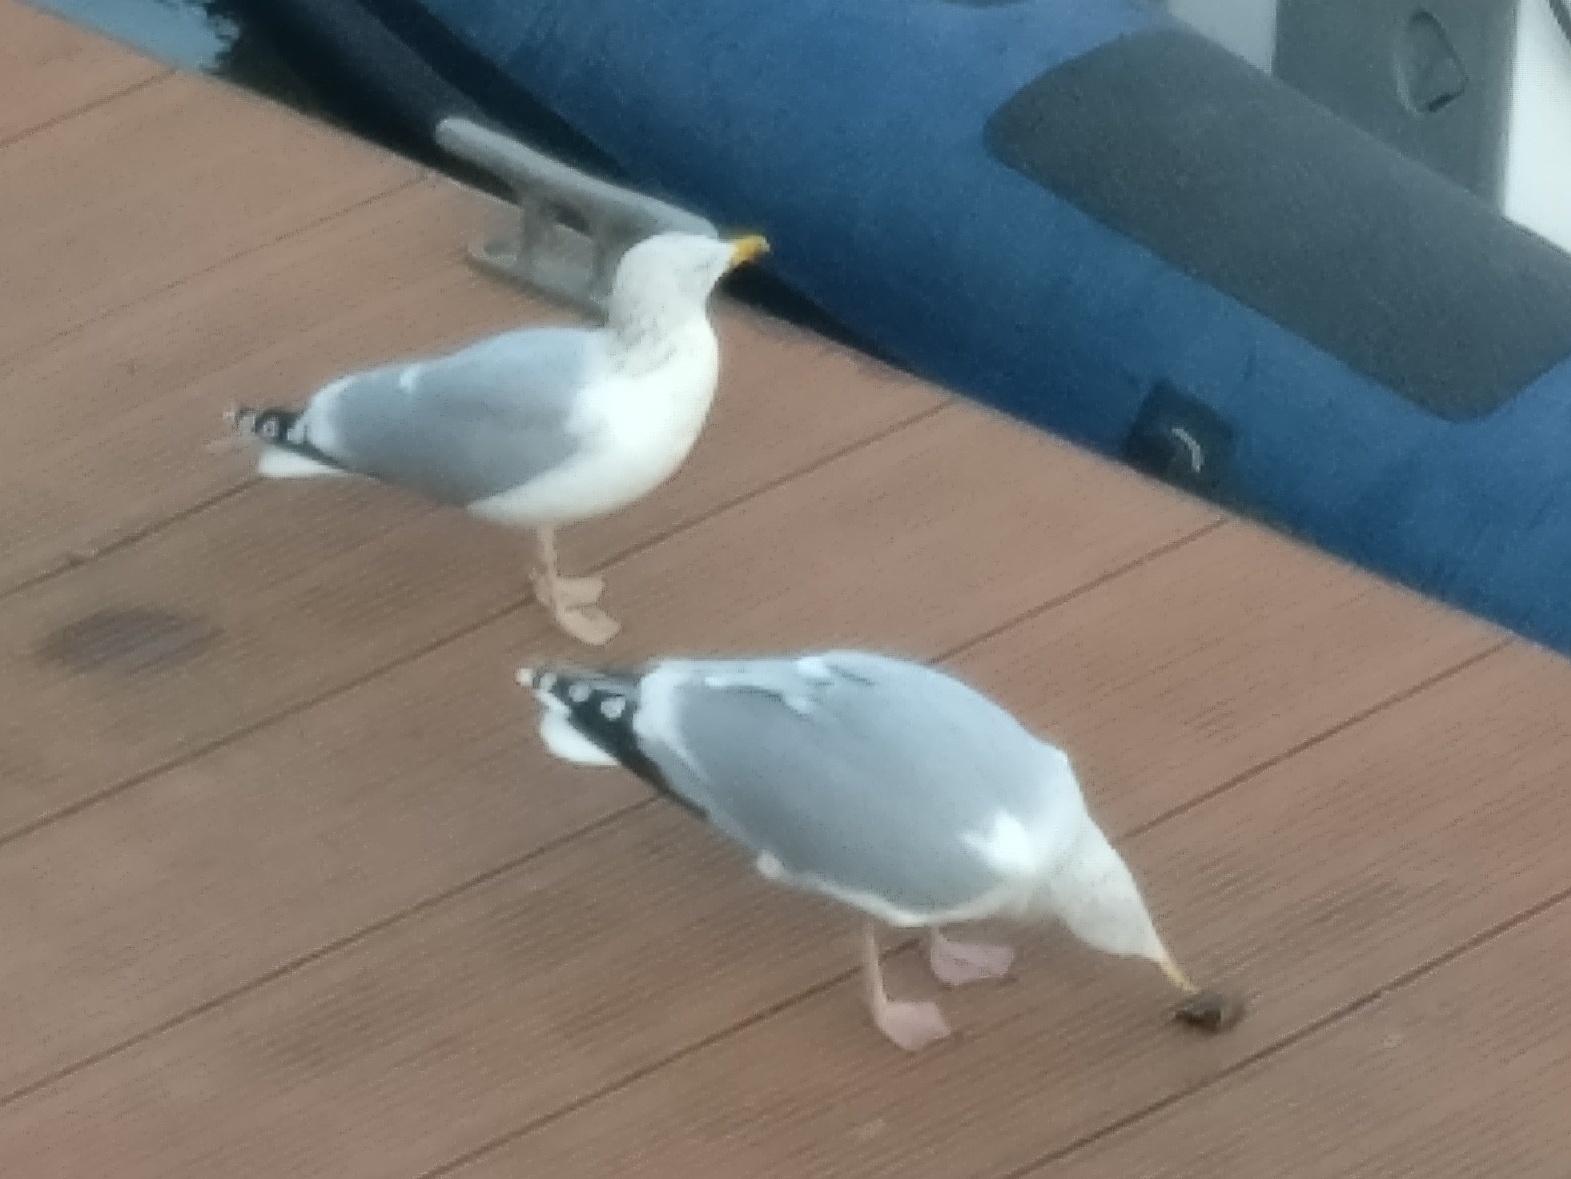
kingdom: Animalia
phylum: Chordata
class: Aves
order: Charadriiformes
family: Laridae
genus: Larus
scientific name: Larus argentatus
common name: Herring gull
